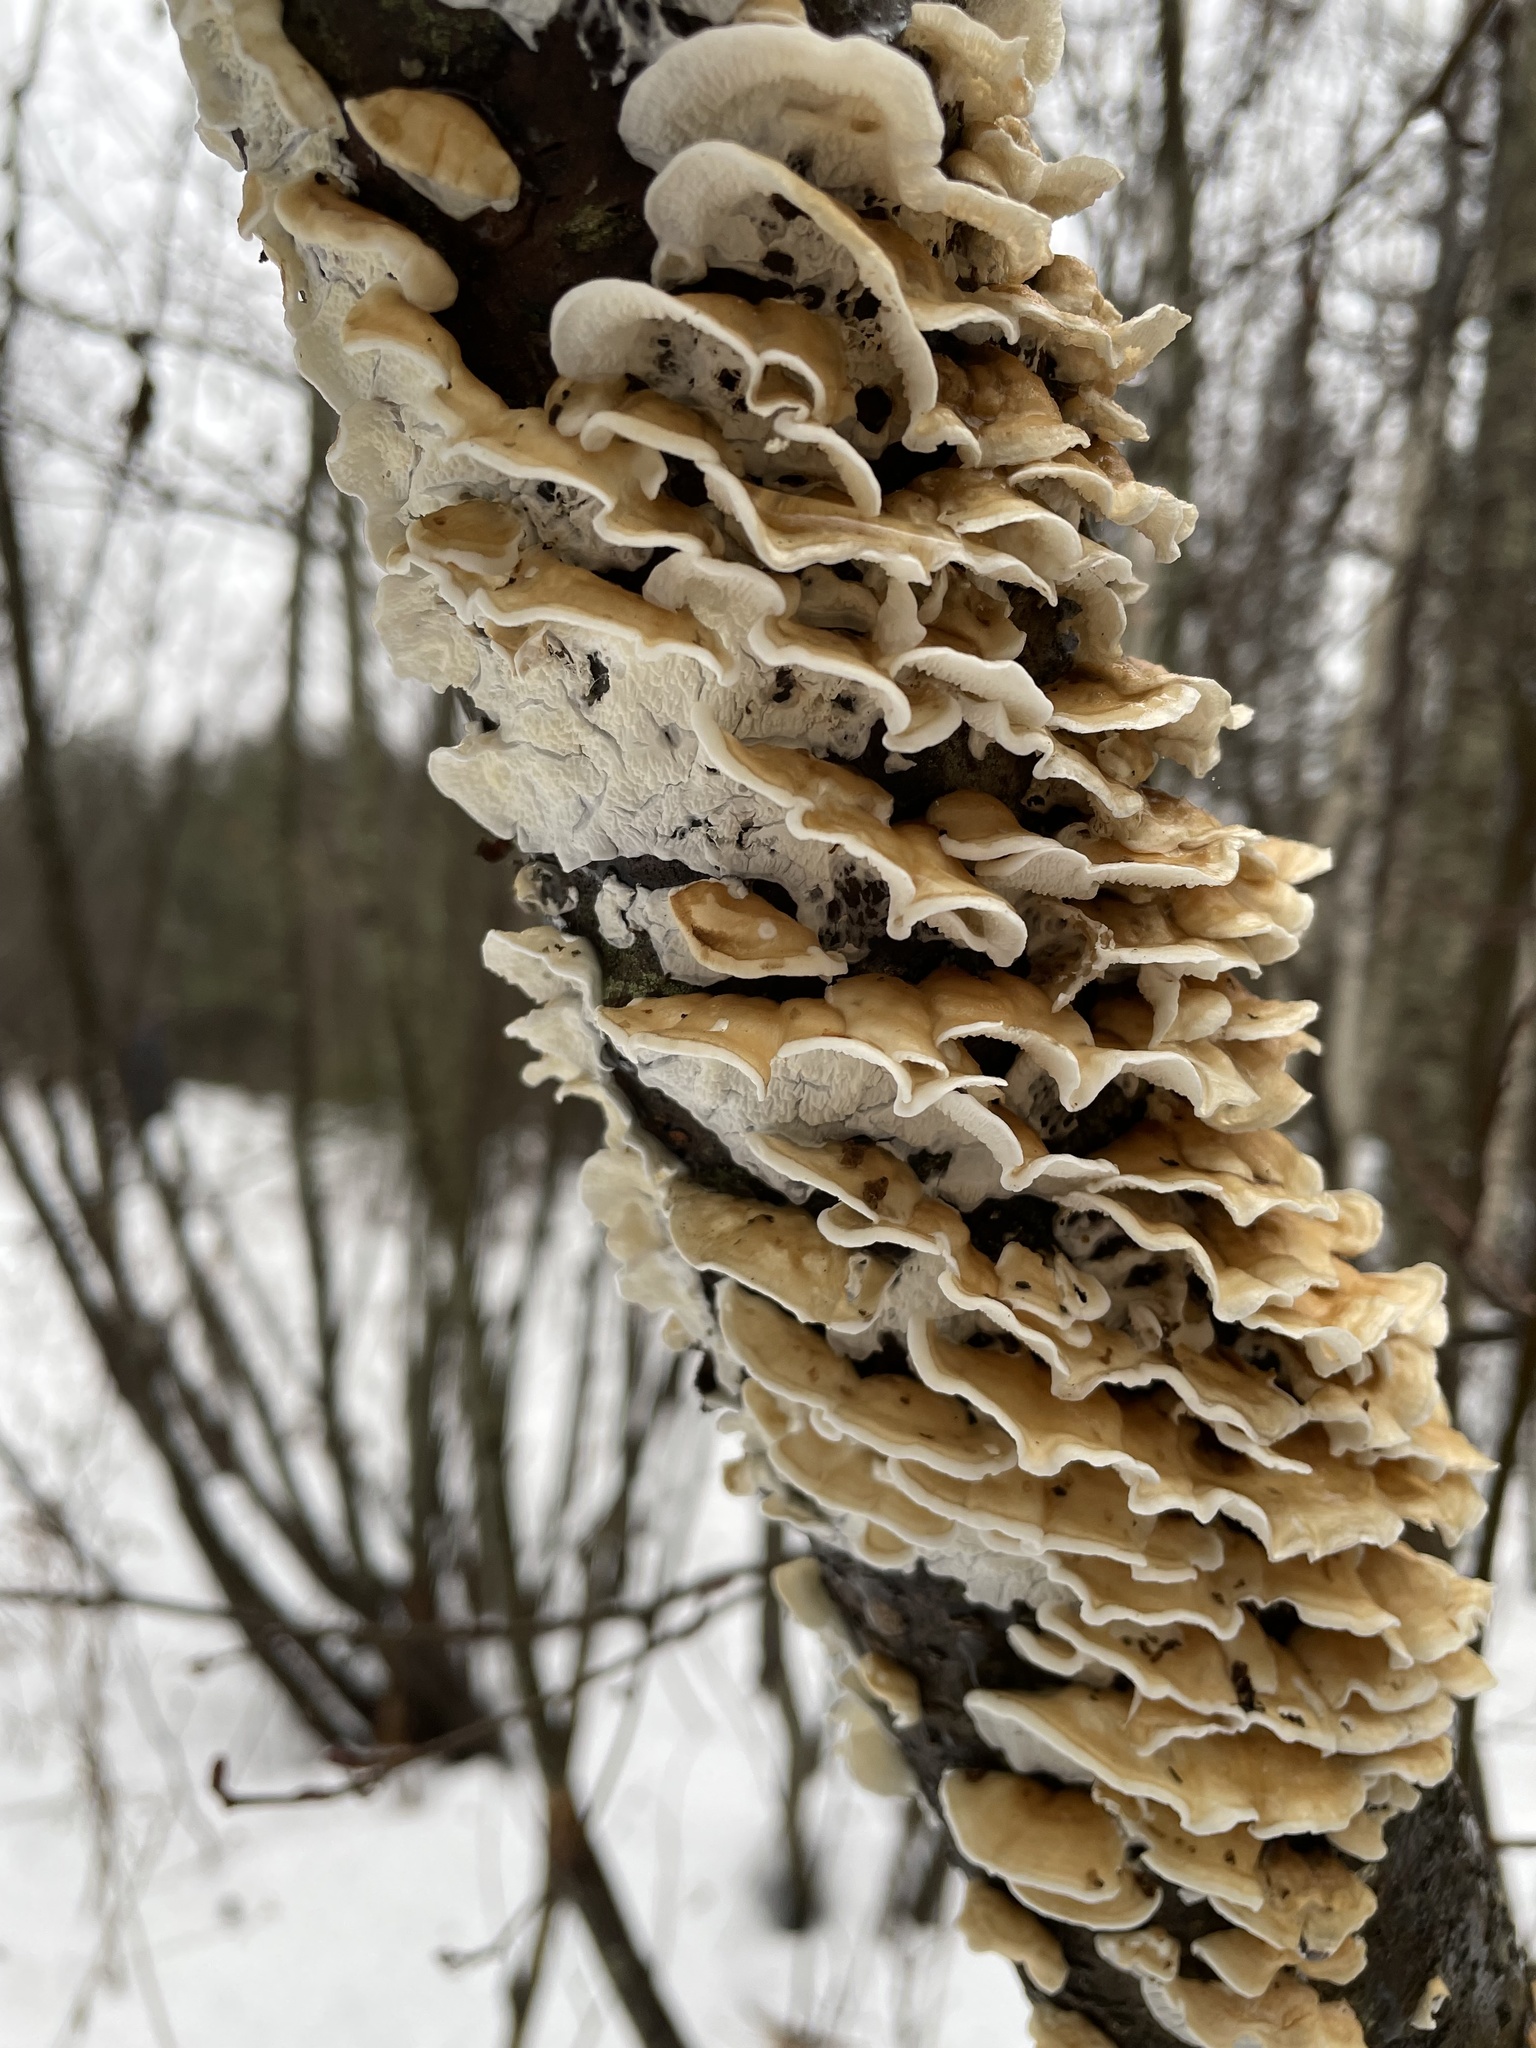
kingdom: Fungi
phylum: Basidiomycota
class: Agaricomycetes
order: Agaricales
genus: Plicatura
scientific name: Plicatura nivea
